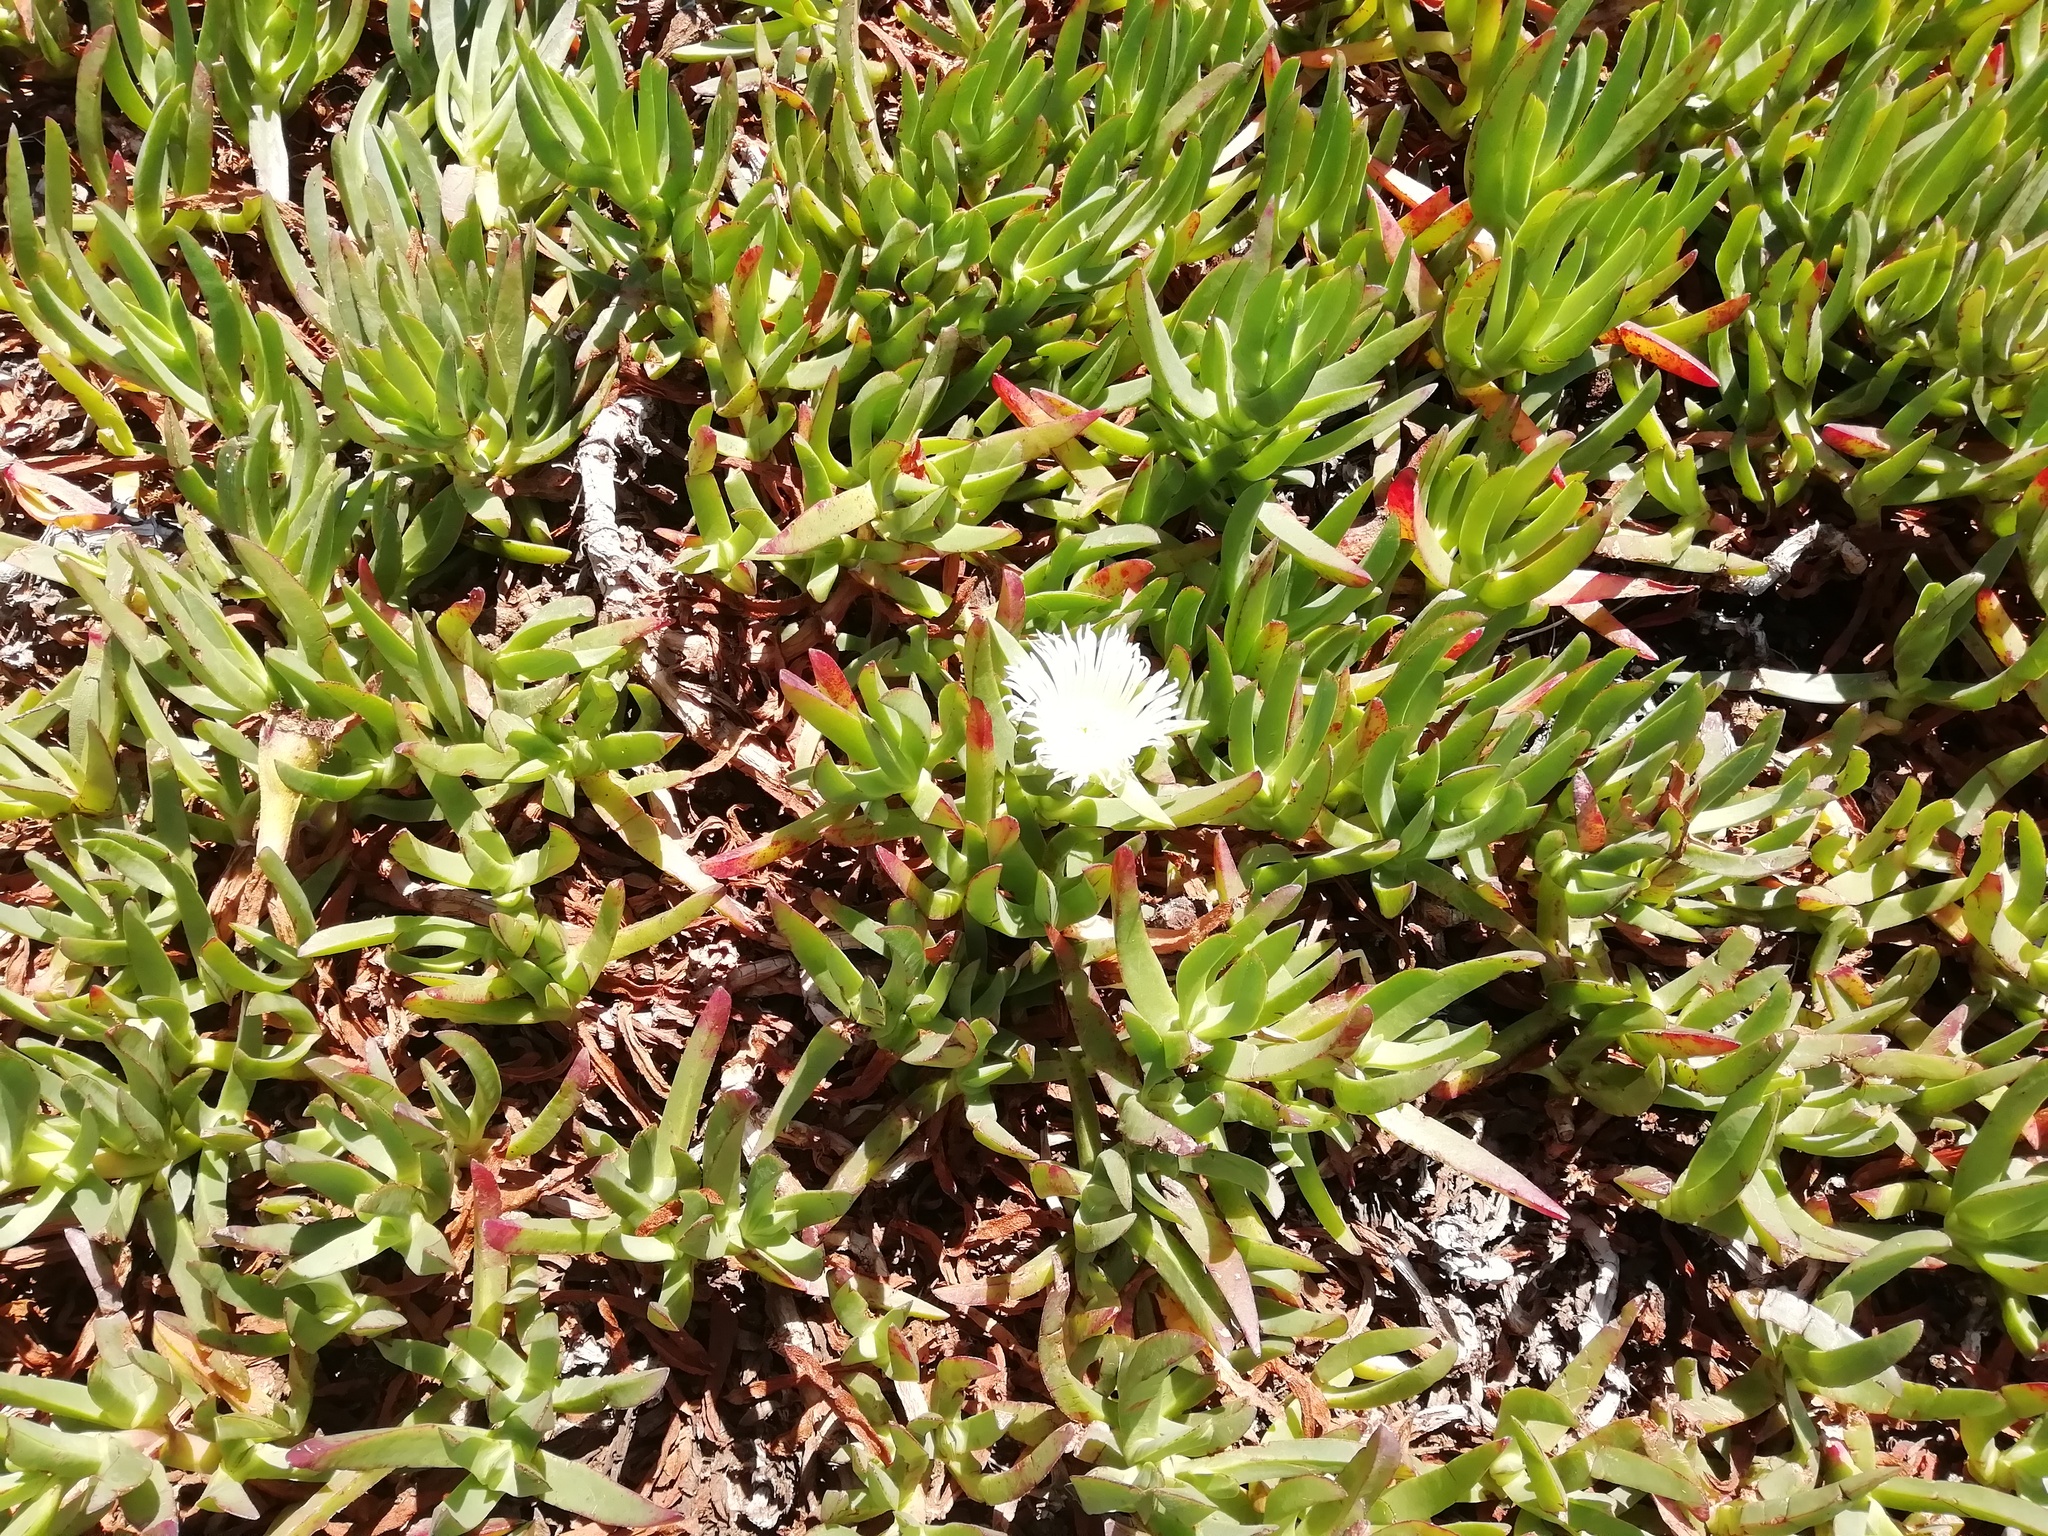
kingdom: Plantae
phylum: Tracheophyta
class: Magnoliopsida
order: Caryophyllales
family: Aizoaceae
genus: Carpobrotus
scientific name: Carpobrotus edulis
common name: Hottentot-fig
